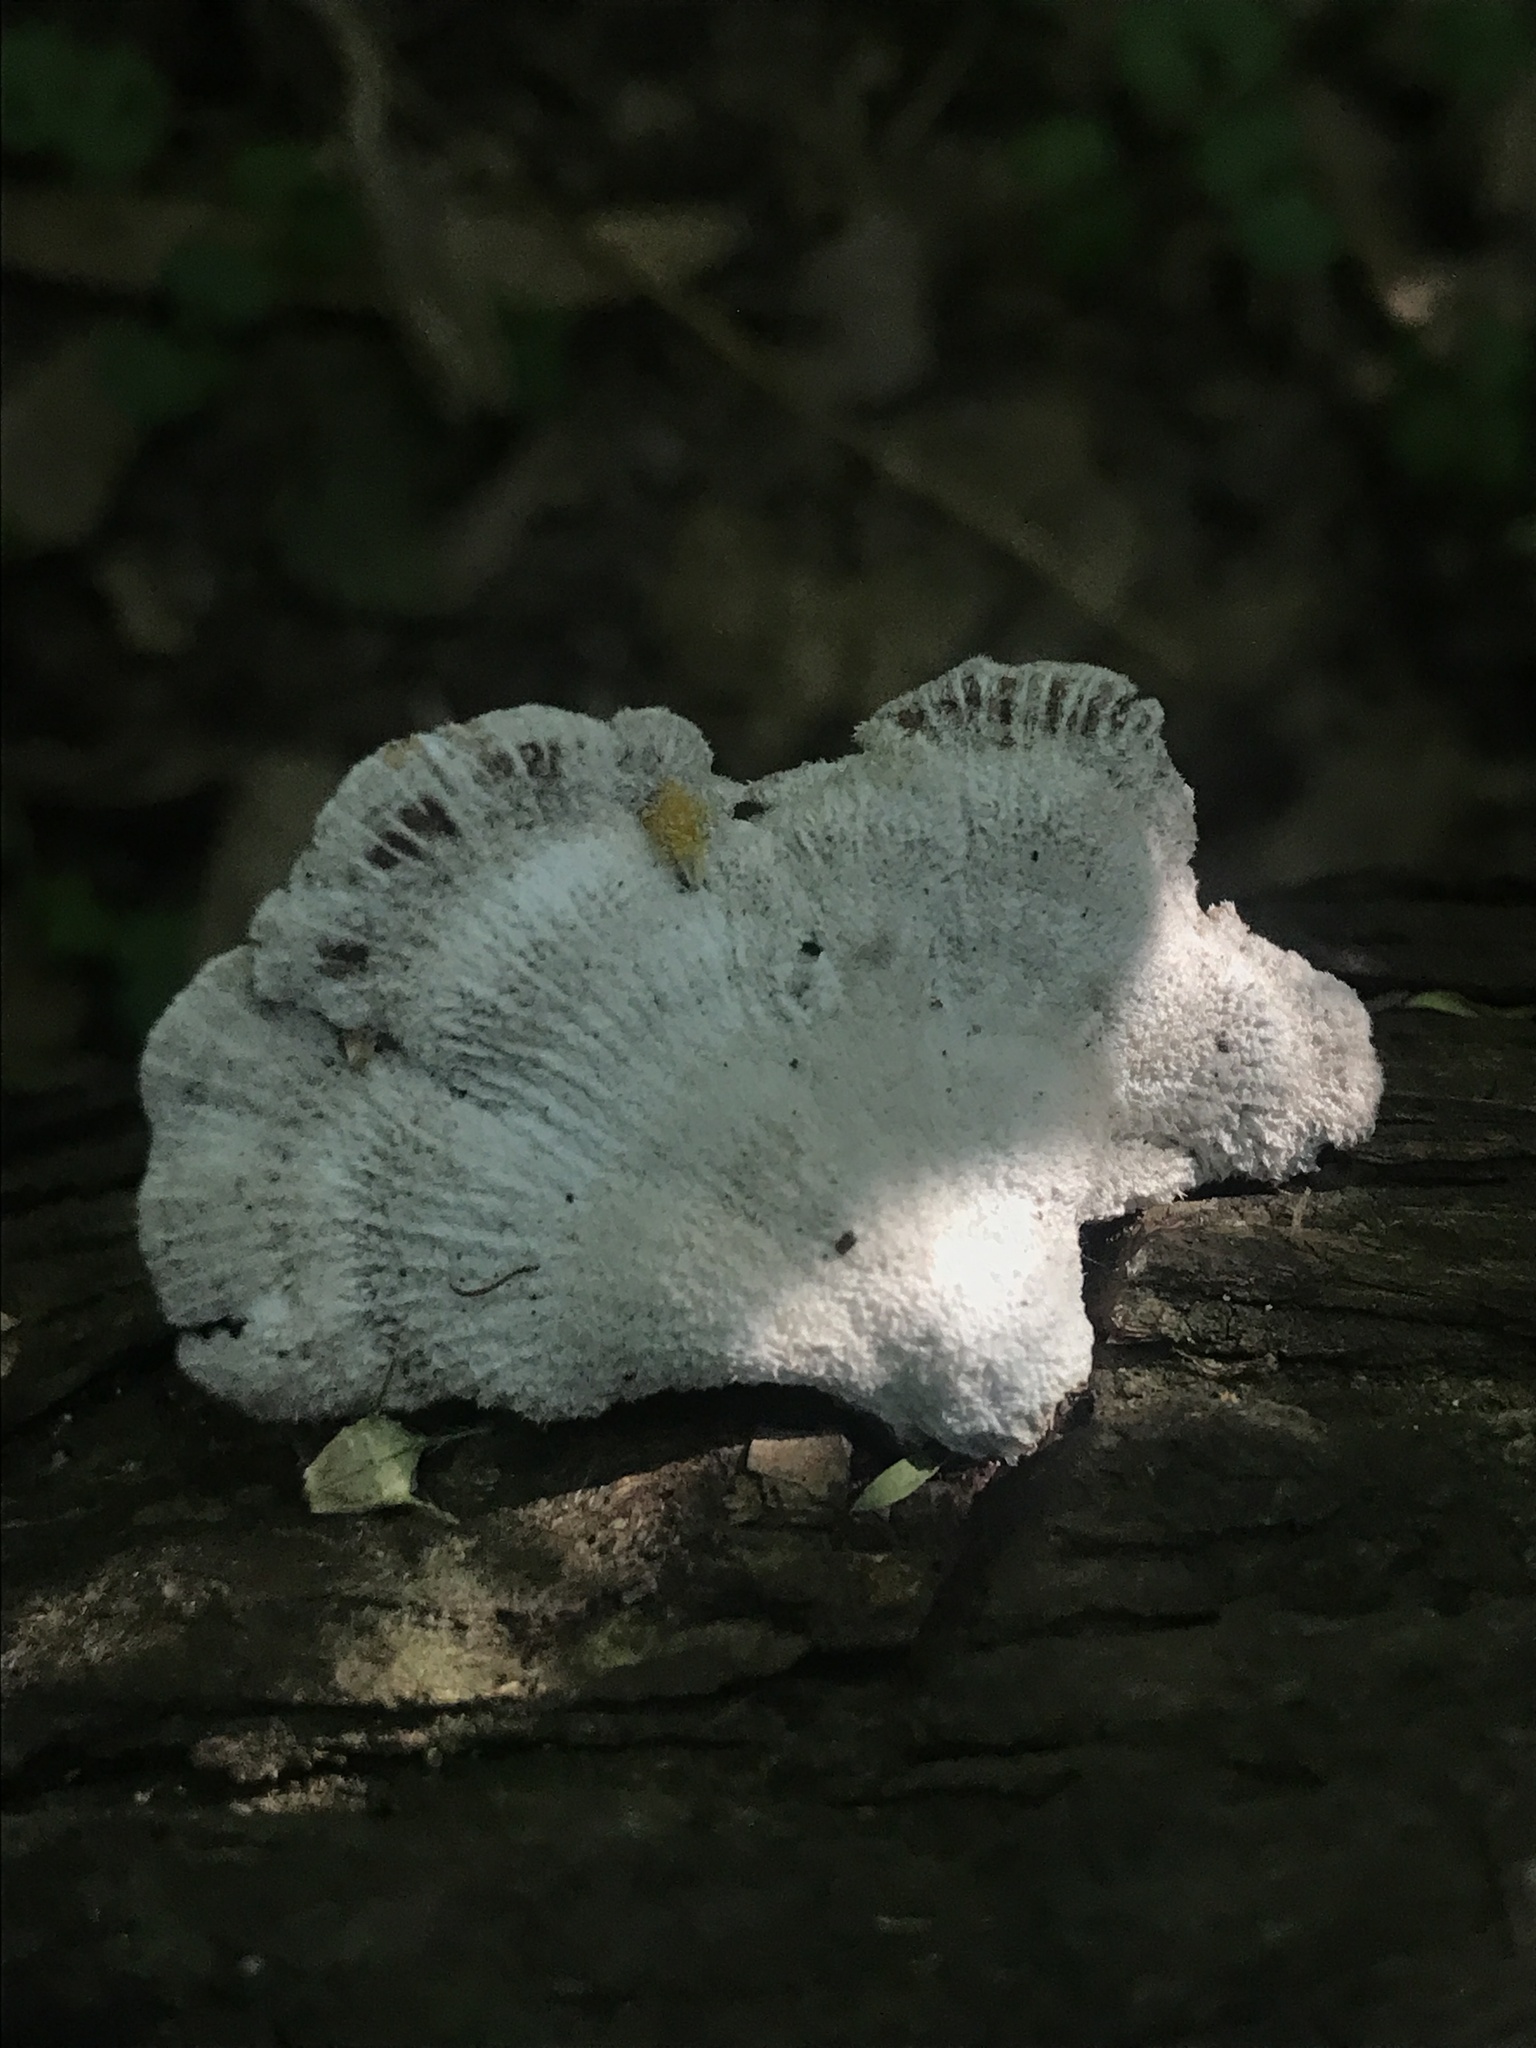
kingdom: Fungi
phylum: Basidiomycota
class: Agaricomycetes
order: Agaricales
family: Schizophyllaceae
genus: Schizophyllum
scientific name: Schizophyllum commune
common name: Common porecrust
